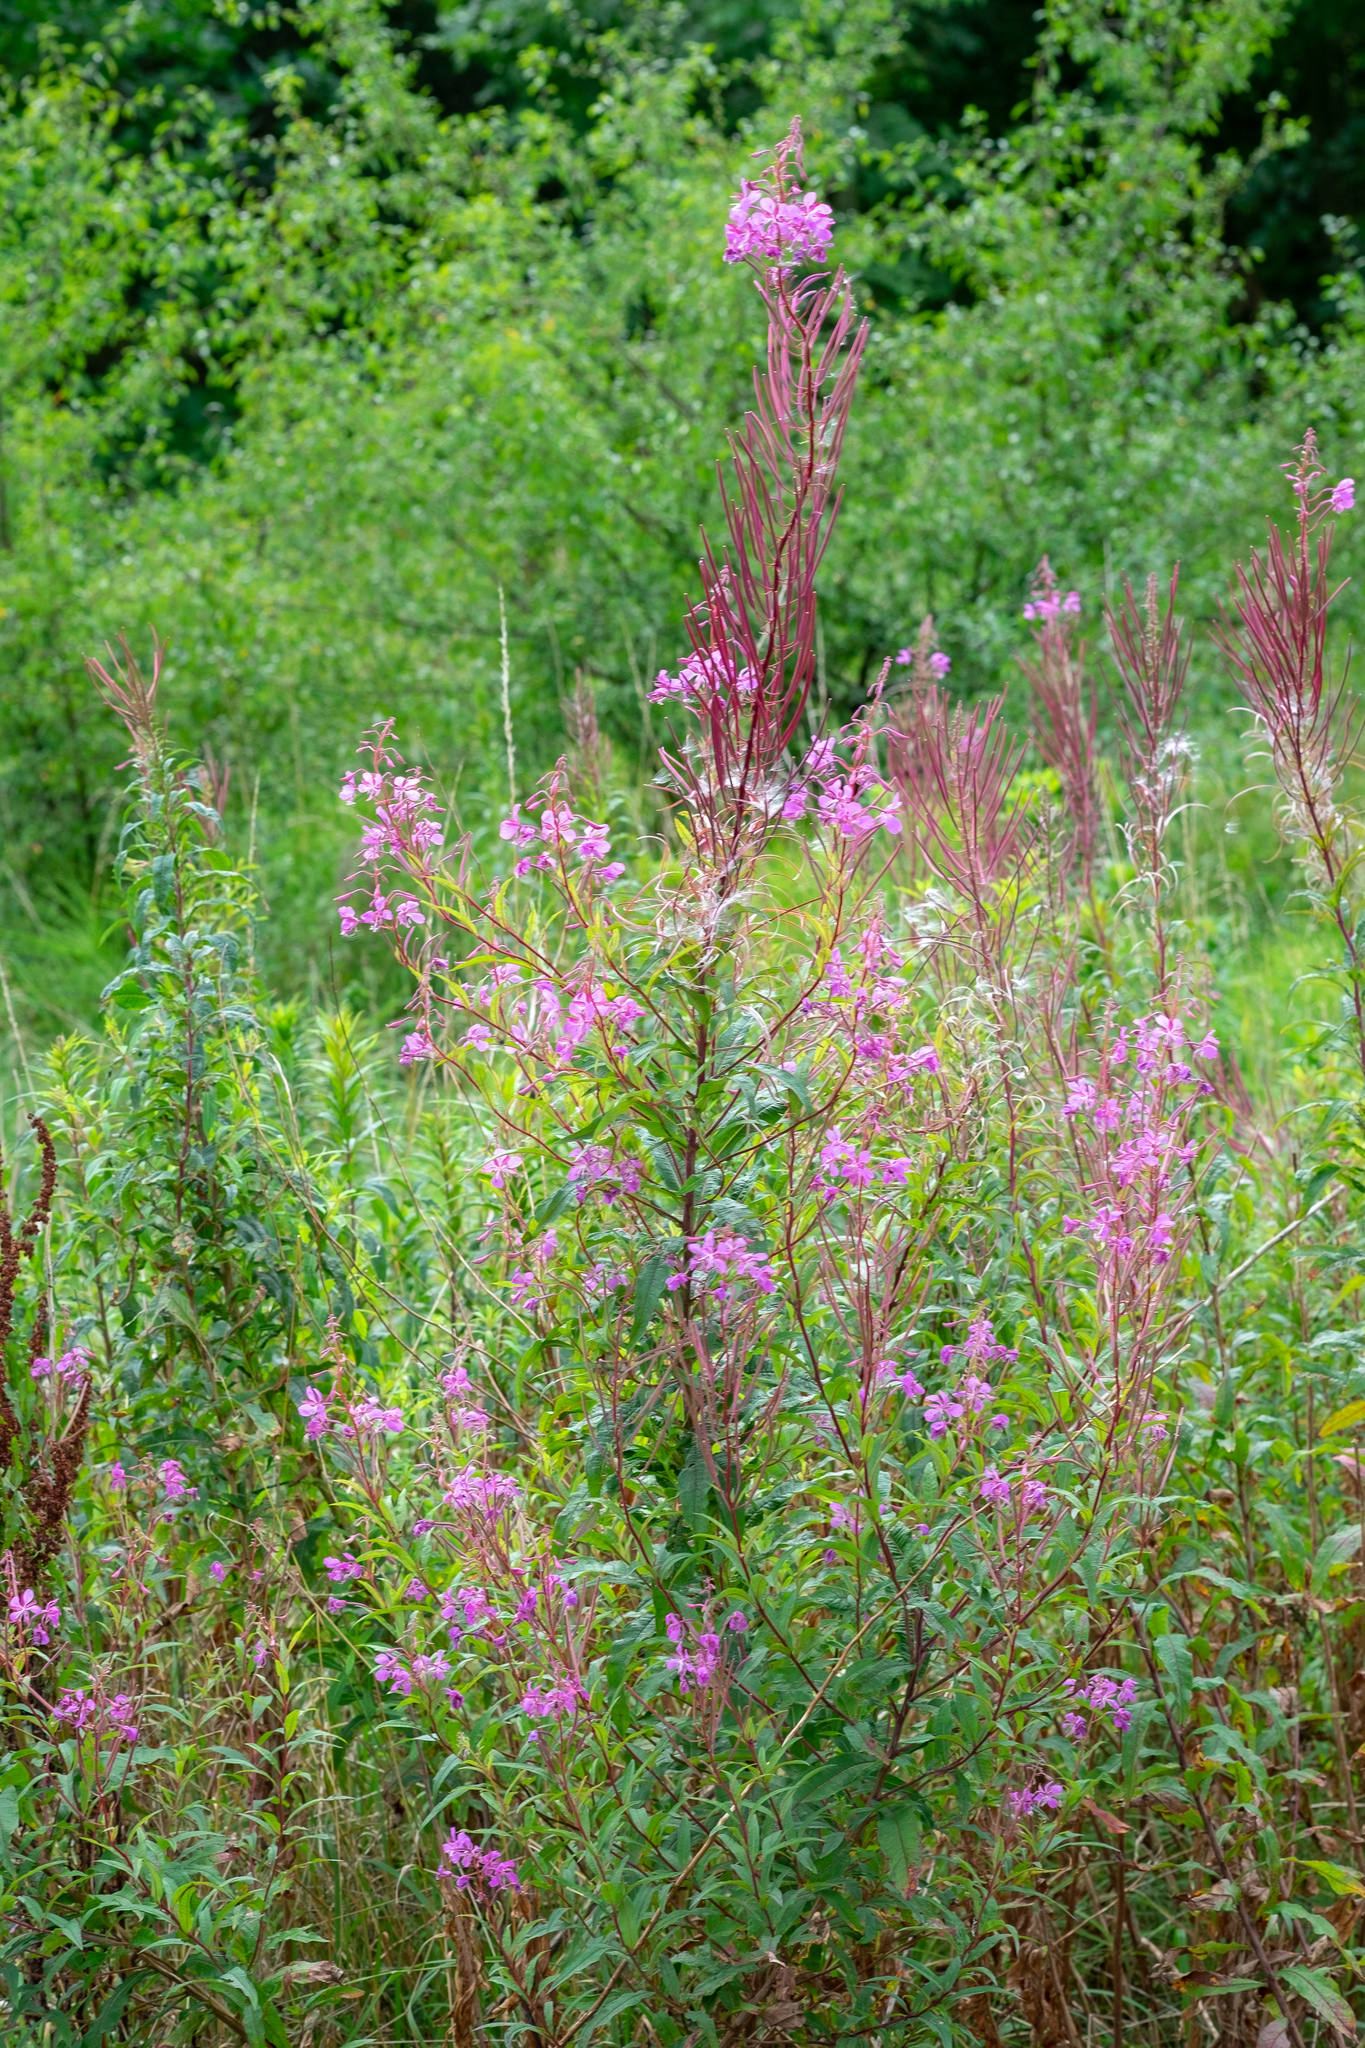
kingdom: Plantae
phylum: Tracheophyta
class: Magnoliopsida
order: Myrtales
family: Onagraceae
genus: Chamaenerion
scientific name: Chamaenerion angustifolium
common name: Fireweed
